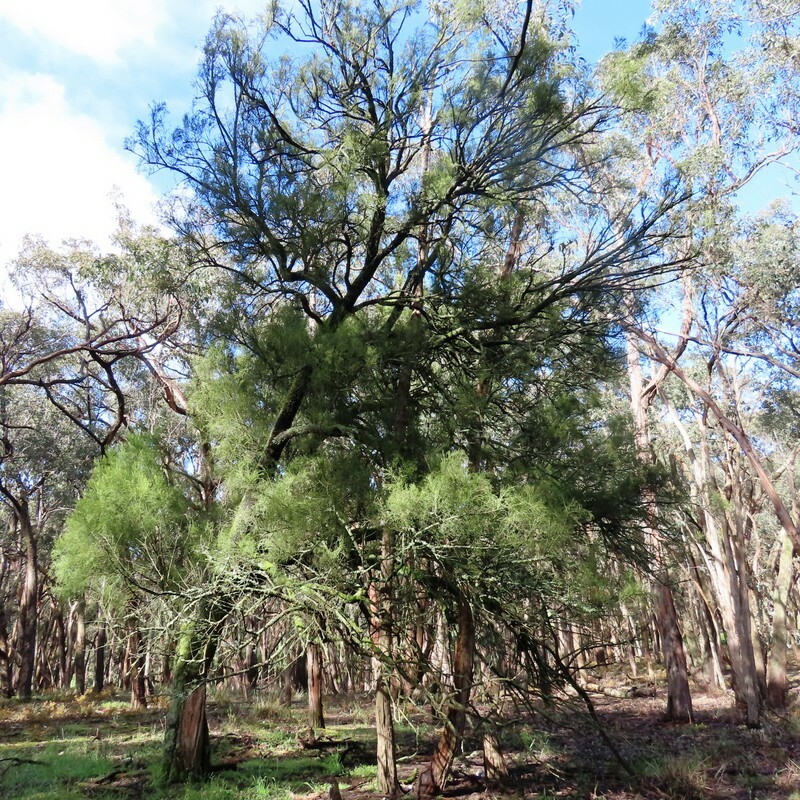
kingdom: Plantae
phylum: Tracheophyta
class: Magnoliopsida
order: Santalales
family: Santalaceae
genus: Exocarpos
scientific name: Exocarpos cupressiformis
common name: Cherry ballart
